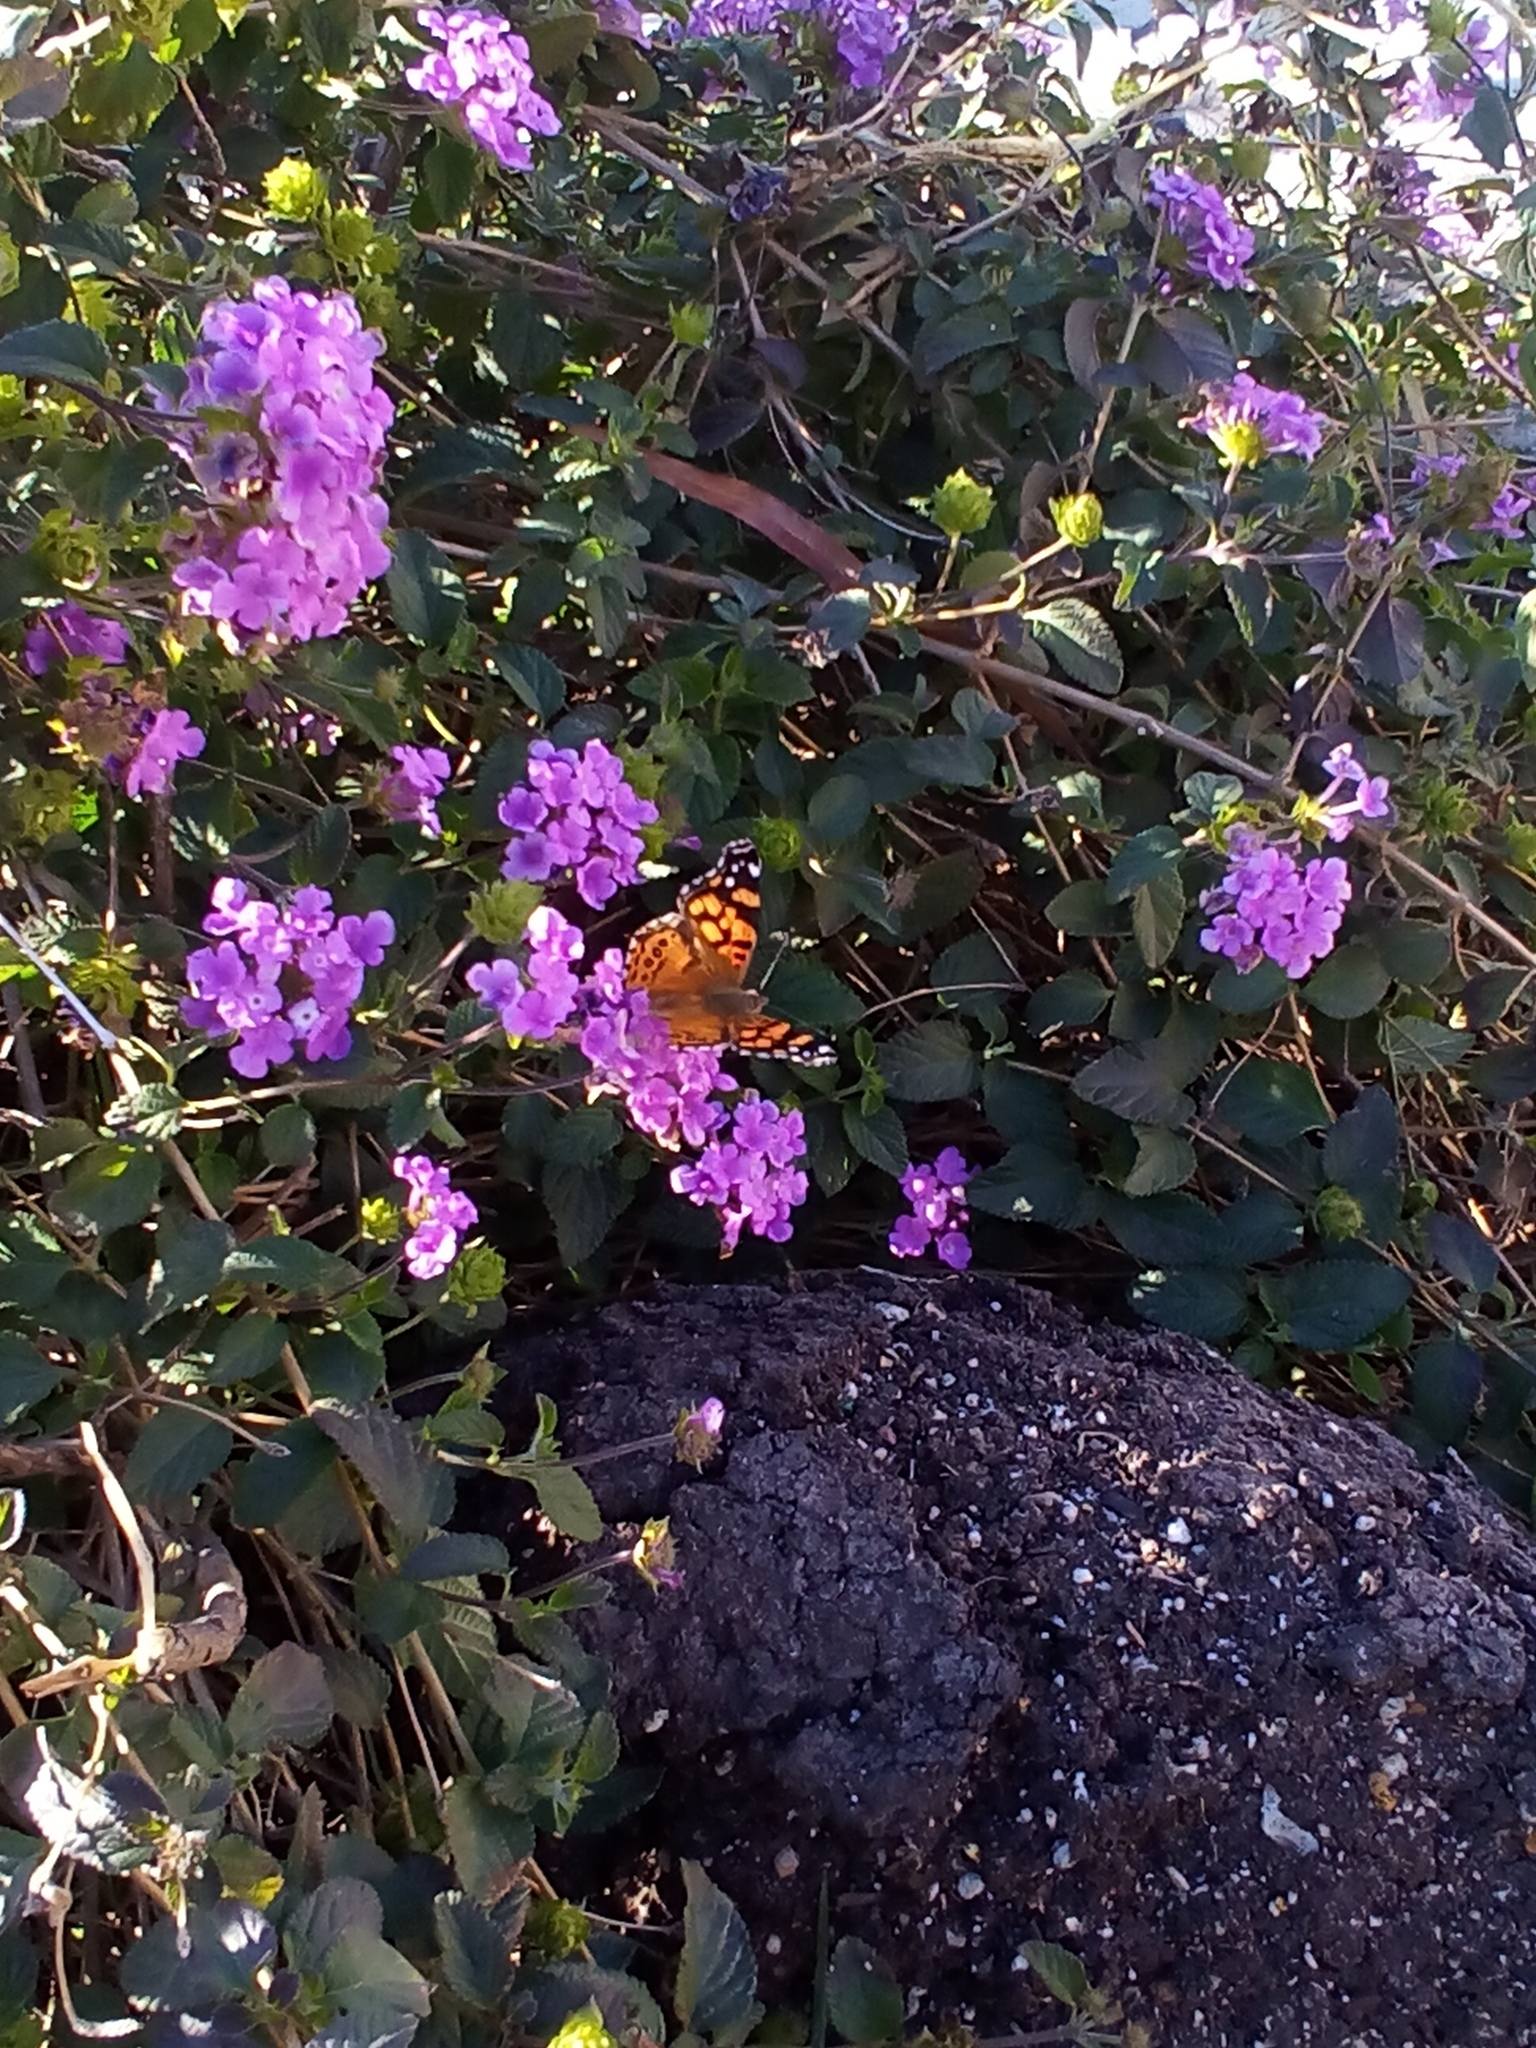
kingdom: Animalia
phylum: Arthropoda
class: Insecta
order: Lepidoptera
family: Nymphalidae
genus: Vanessa
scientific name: Vanessa annabella
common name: West coast lady
